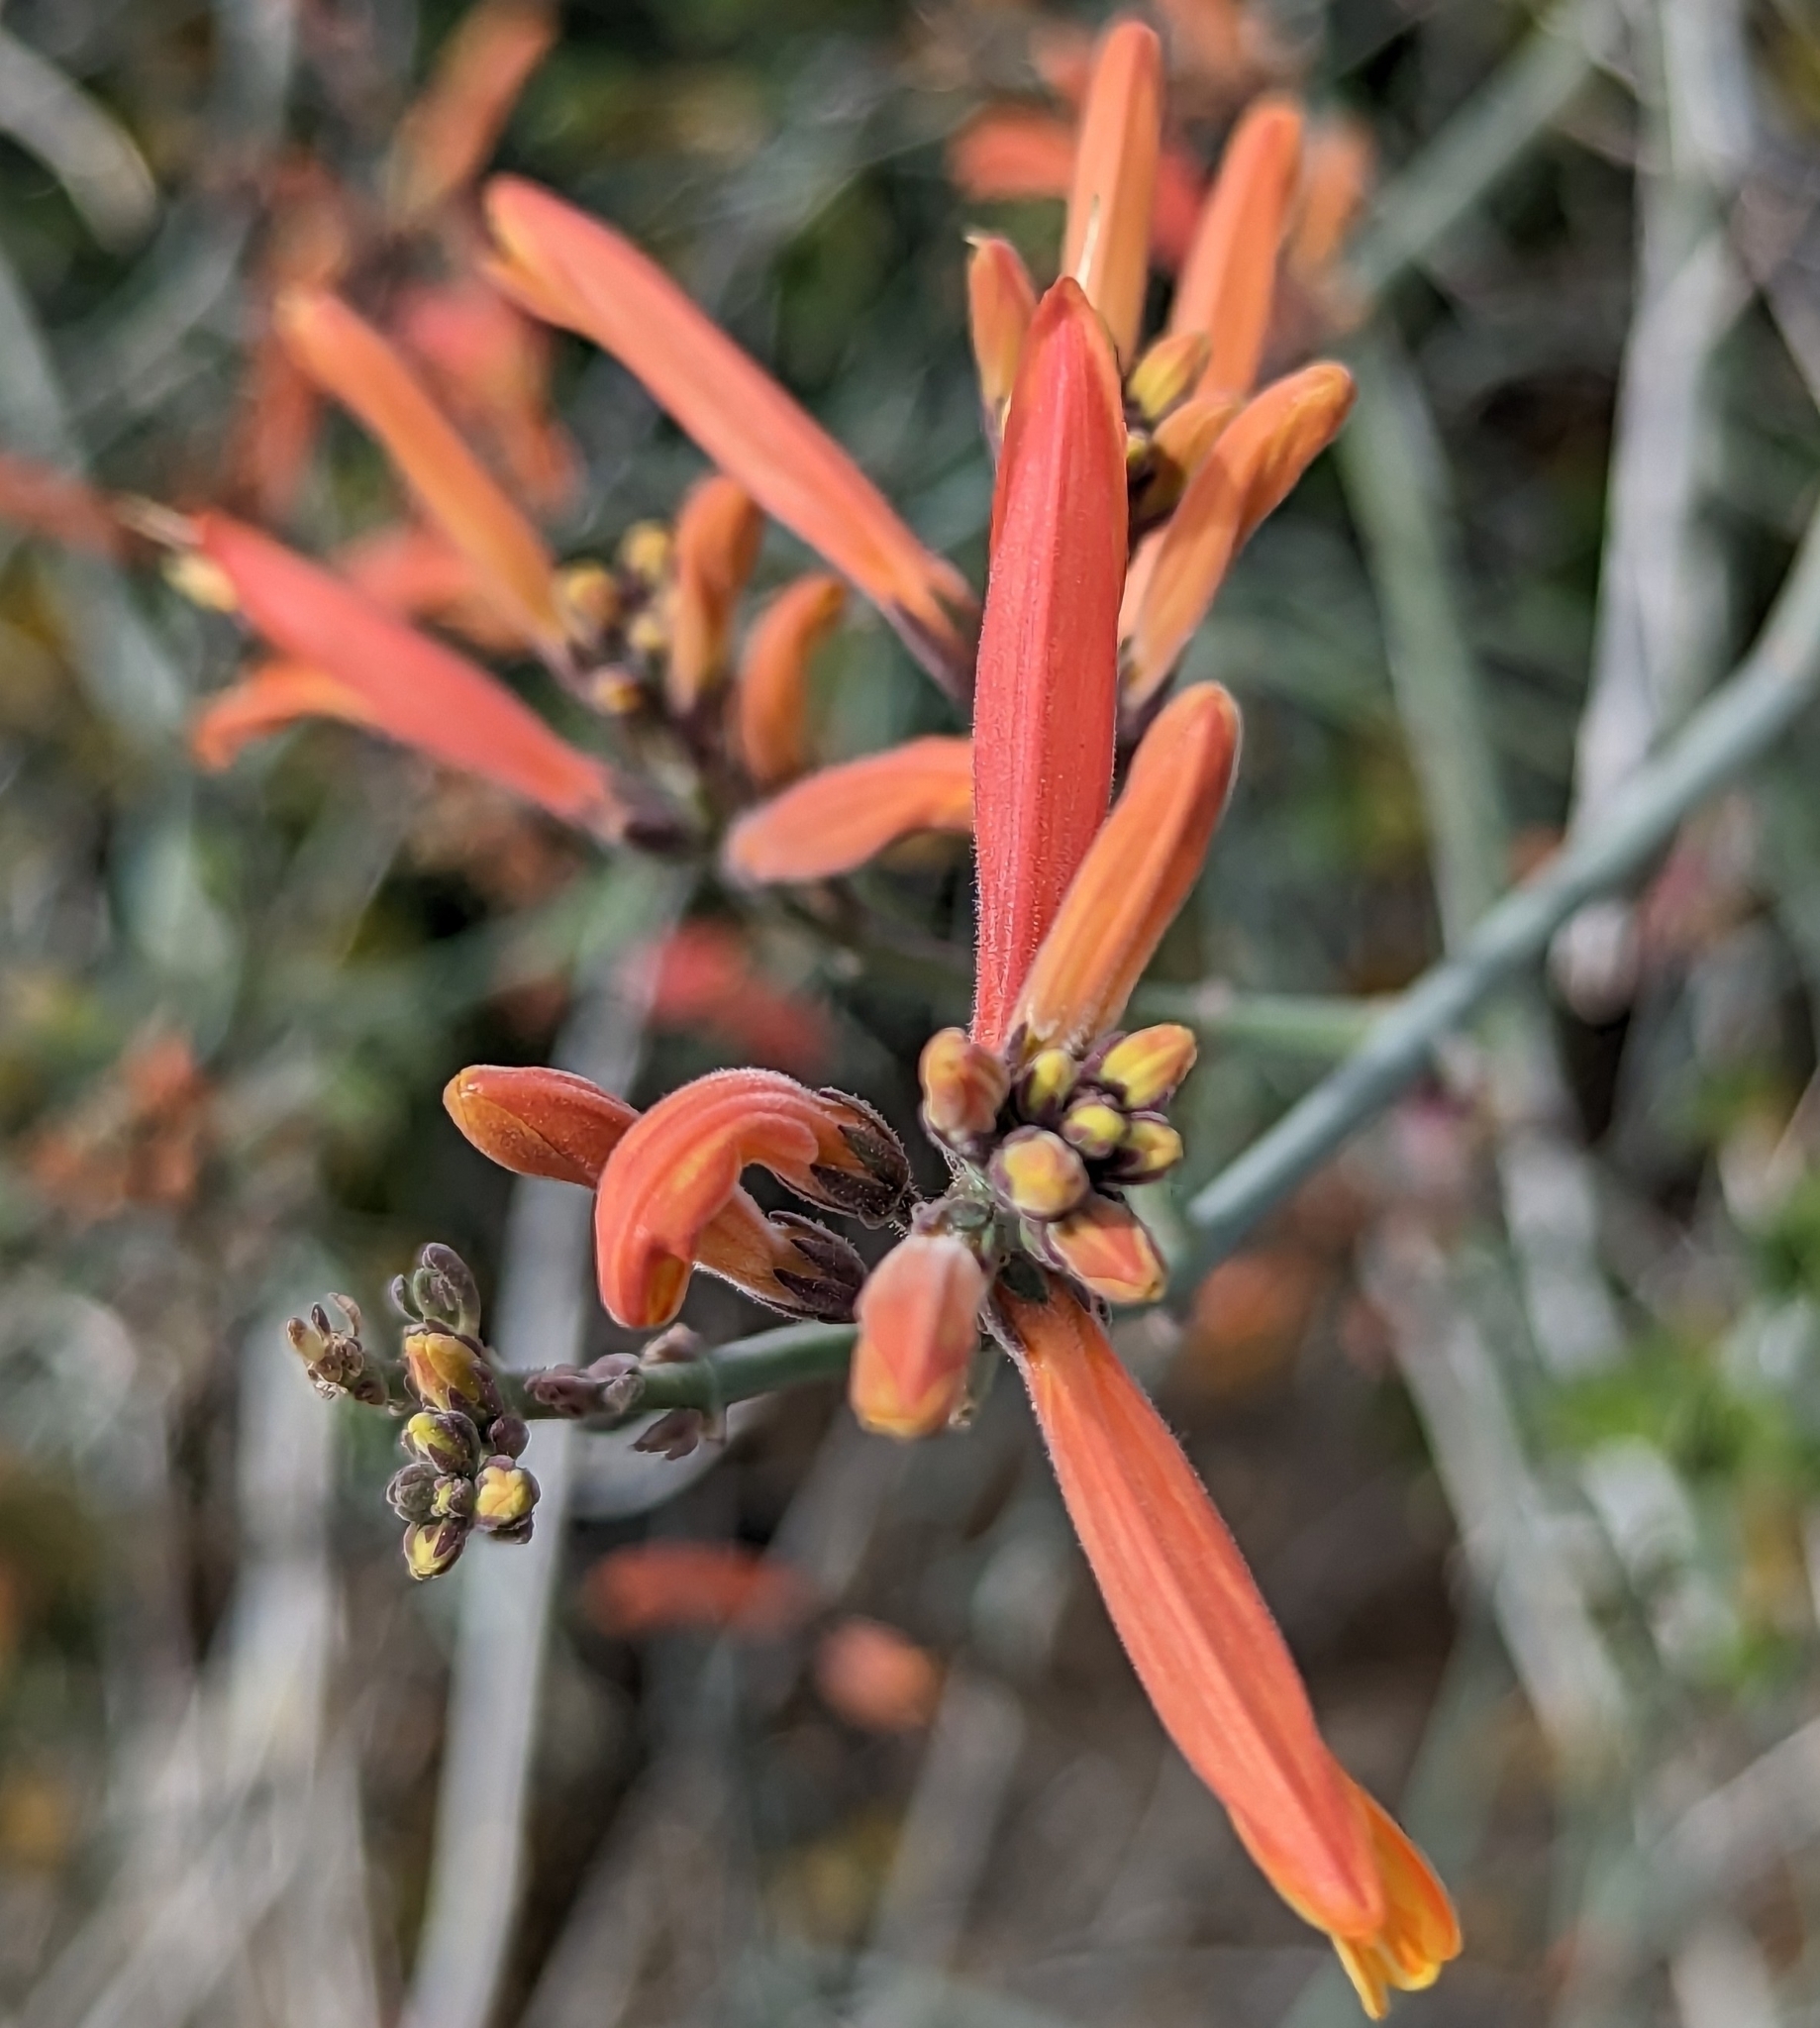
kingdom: Plantae
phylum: Tracheophyta
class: Magnoliopsida
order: Lamiales
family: Acanthaceae
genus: Justicia
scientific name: Justicia californica
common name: Chuparosa-honeysuckle
